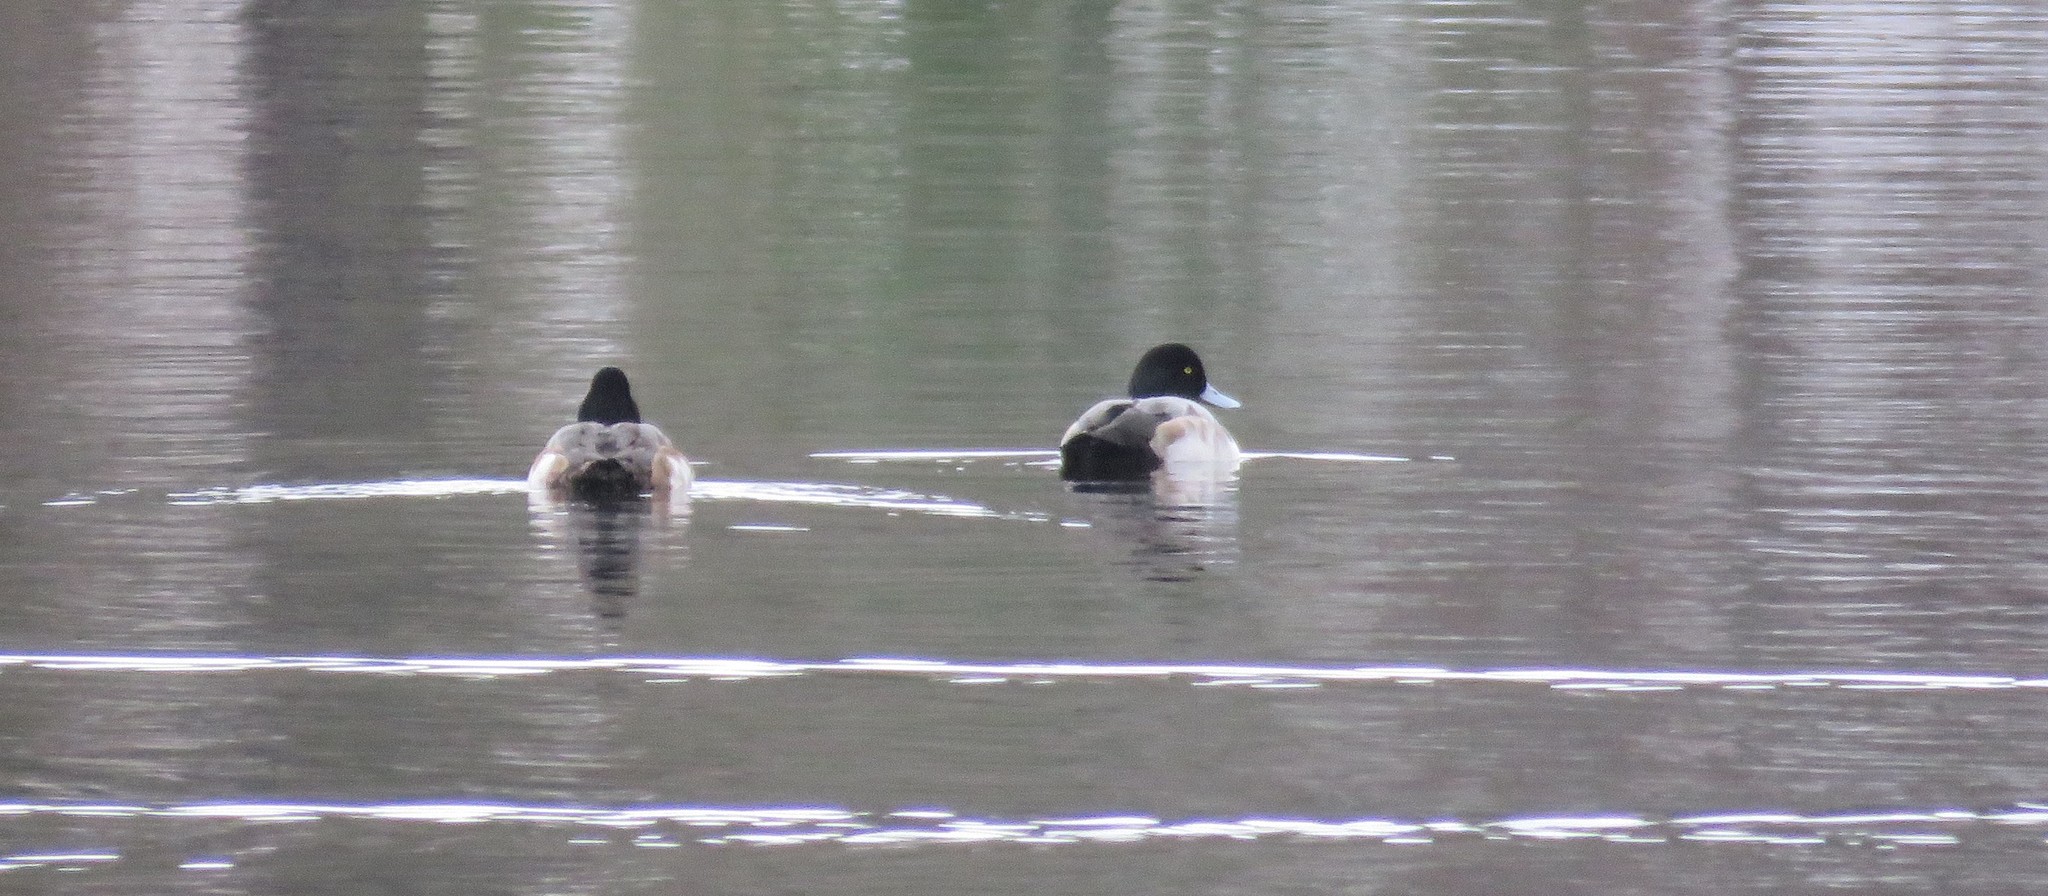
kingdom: Animalia
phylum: Chordata
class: Aves
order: Anseriformes
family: Anatidae
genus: Aythya
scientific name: Aythya marila
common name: Greater scaup
